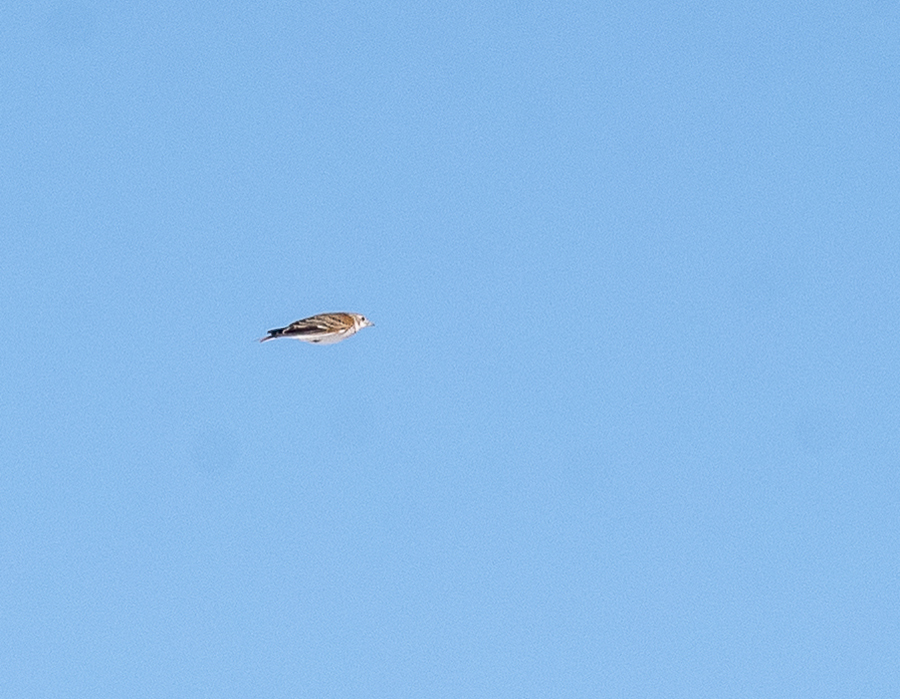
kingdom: Animalia
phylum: Chordata
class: Aves
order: Passeriformes
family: Alaudidae
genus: Melanocorypha
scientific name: Melanocorypha leucoptera
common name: White-winged lark
